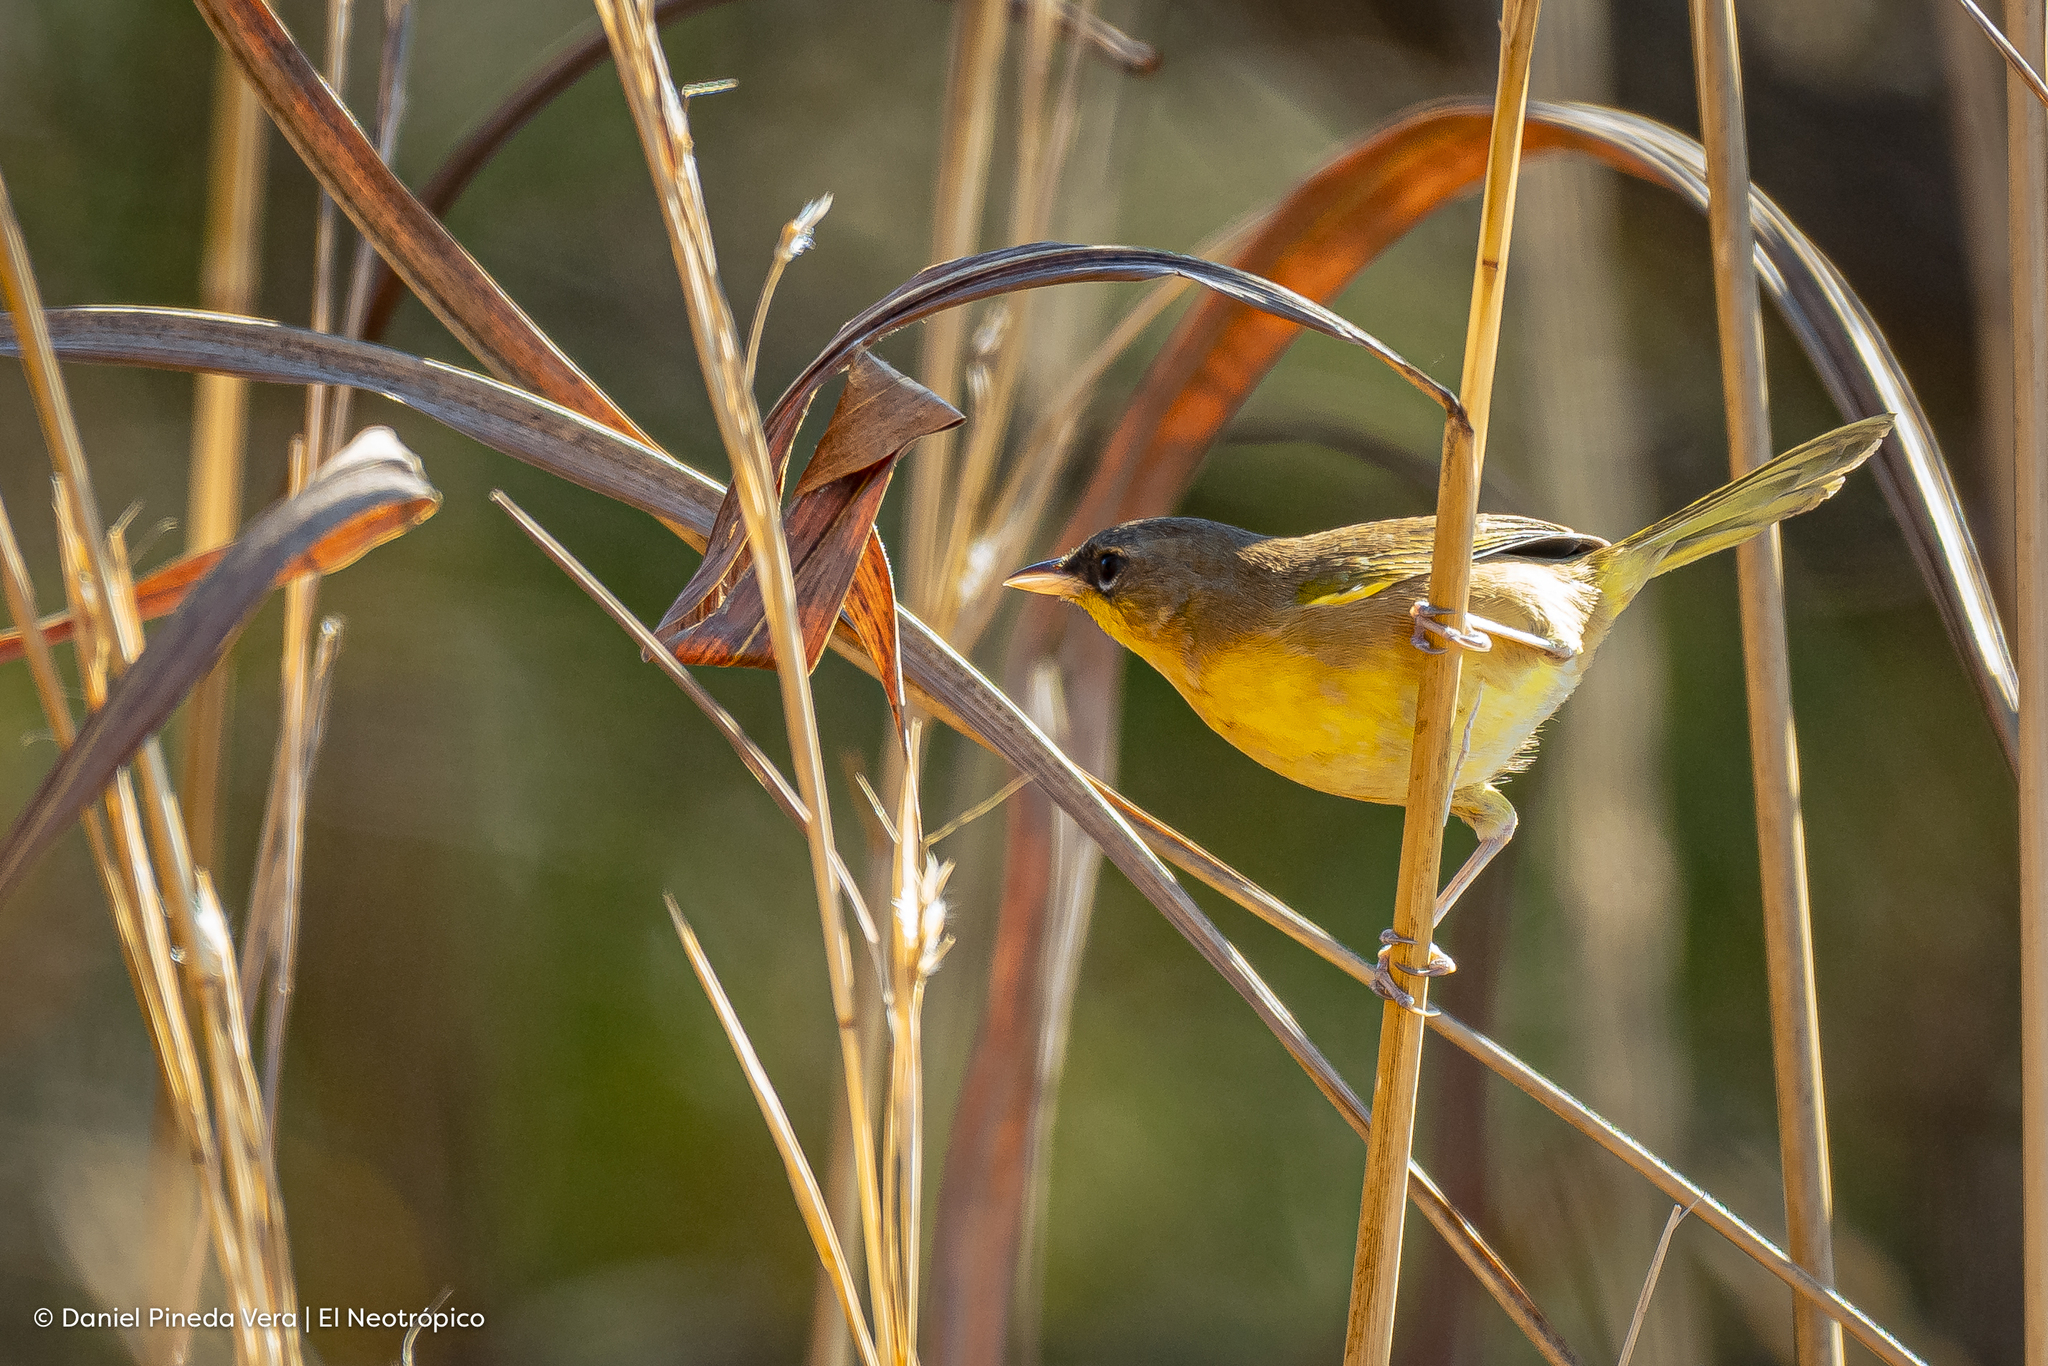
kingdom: Animalia
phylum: Chordata
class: Aves
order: Passeriformes
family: Parulidae
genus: Geothlypis
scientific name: Geothlypis poliocephala
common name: Gray-crowned yellowthroat
